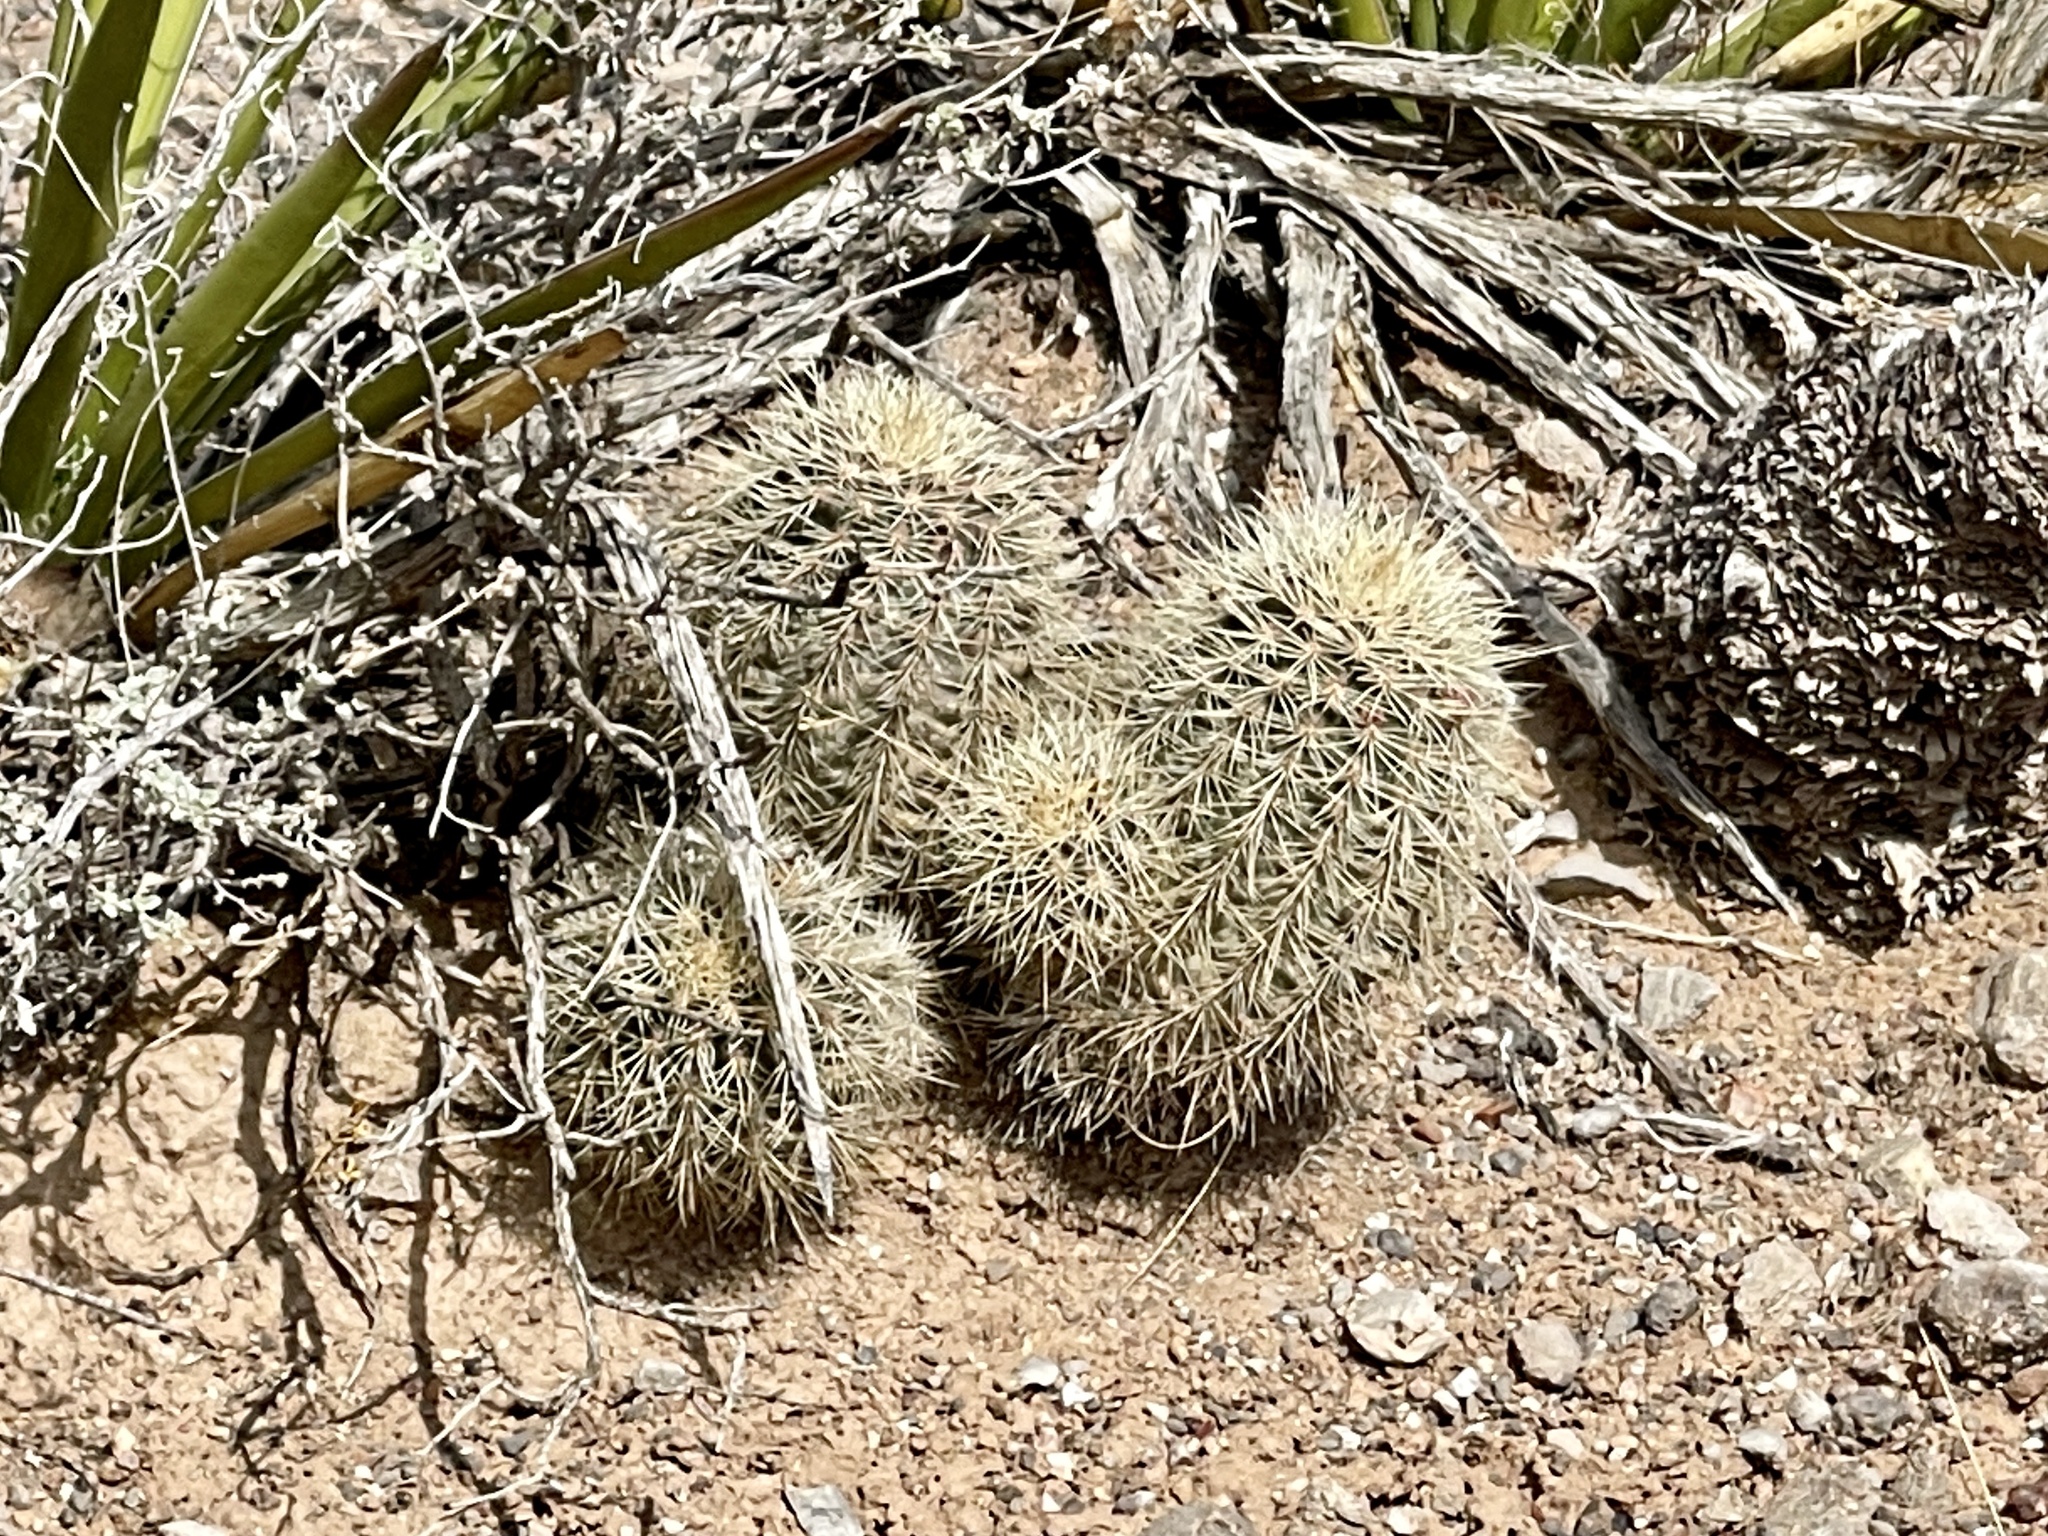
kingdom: Plantae
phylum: Tracheophyta
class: Magnoliopsida
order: Caryophyllales
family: Cactaceae
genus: Echinocereus
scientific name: Echinocereus roetteri
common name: Lloyd's hedgehog cactus
